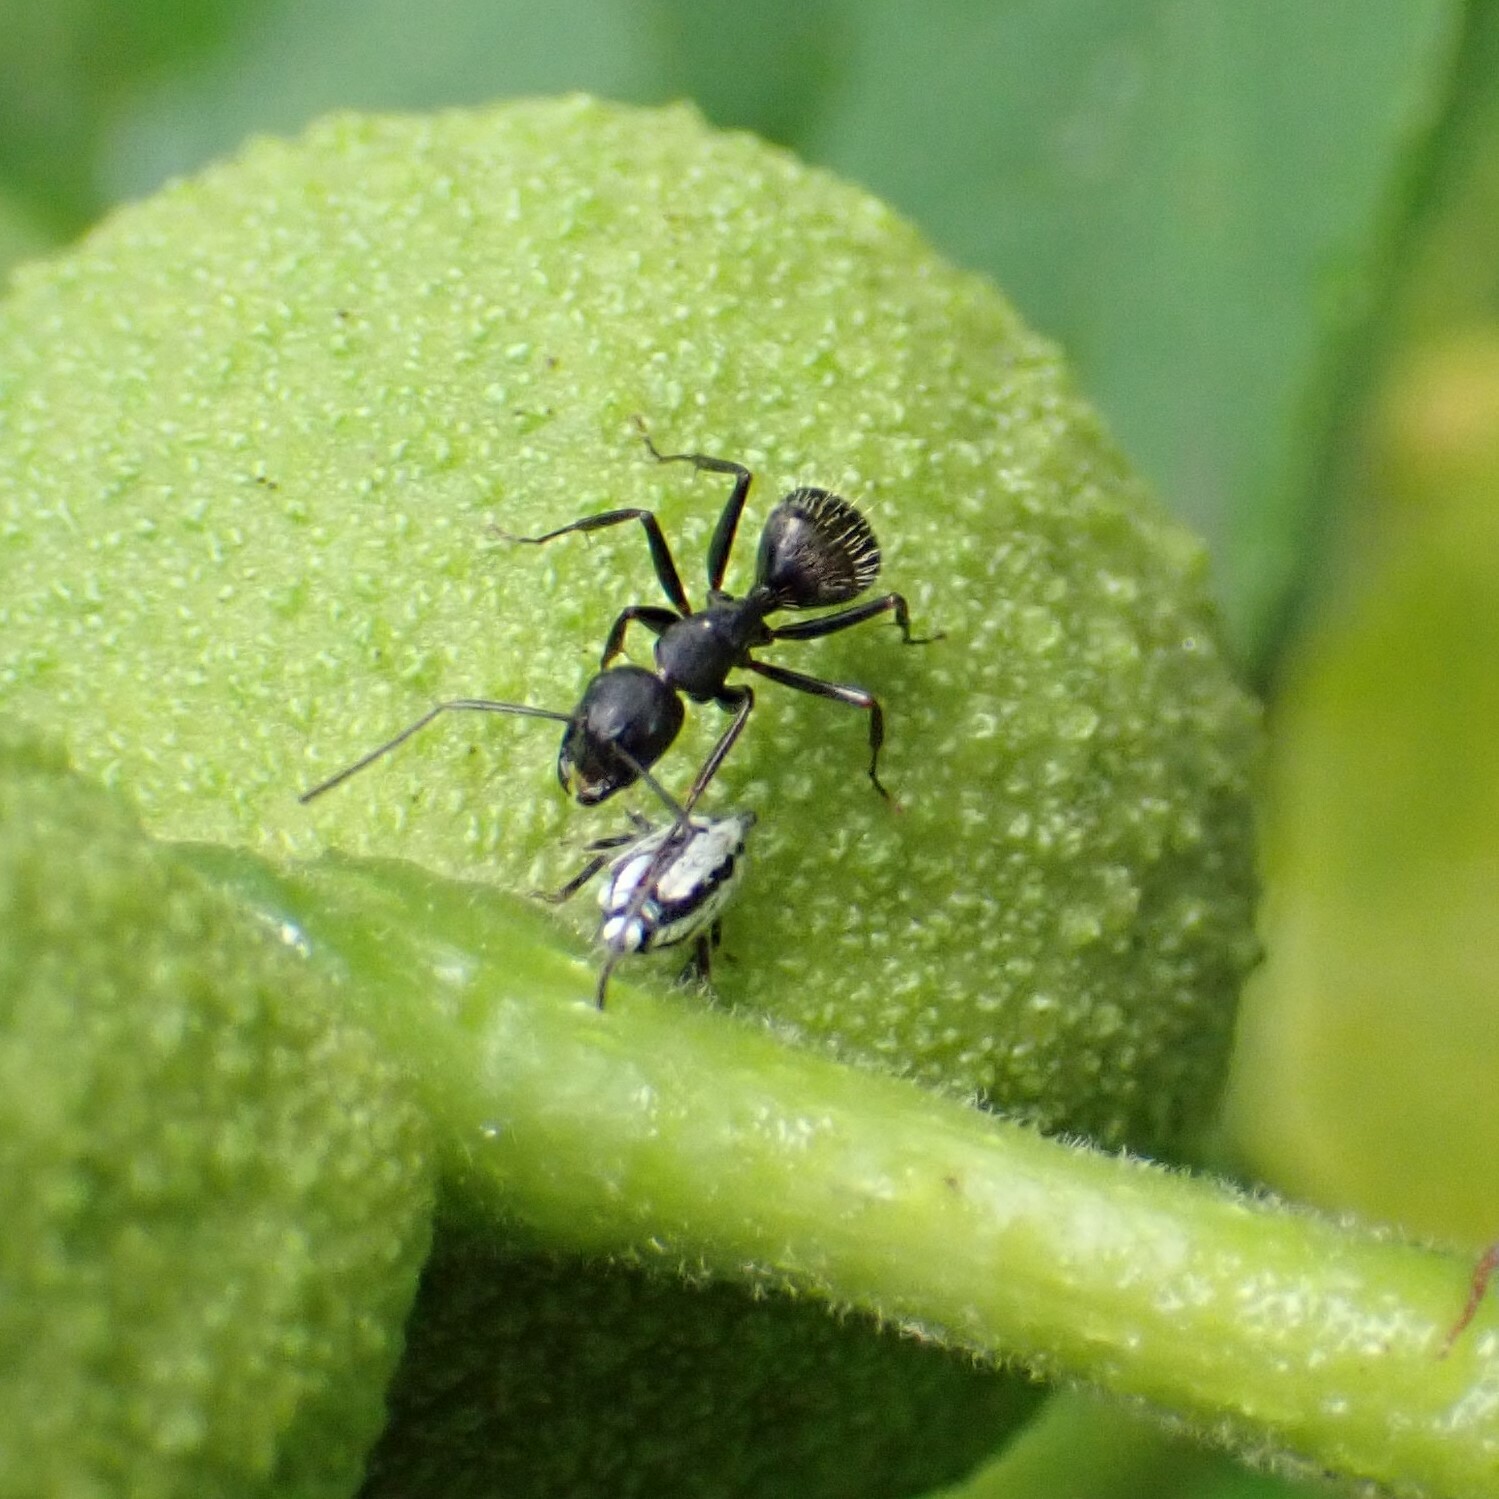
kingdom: Animalia
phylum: Arthropoda
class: Insecta
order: Hymenoptera
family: Formicidae
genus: Camponotus
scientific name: Camponotus pennsylvanicus
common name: Black carpenter ant
